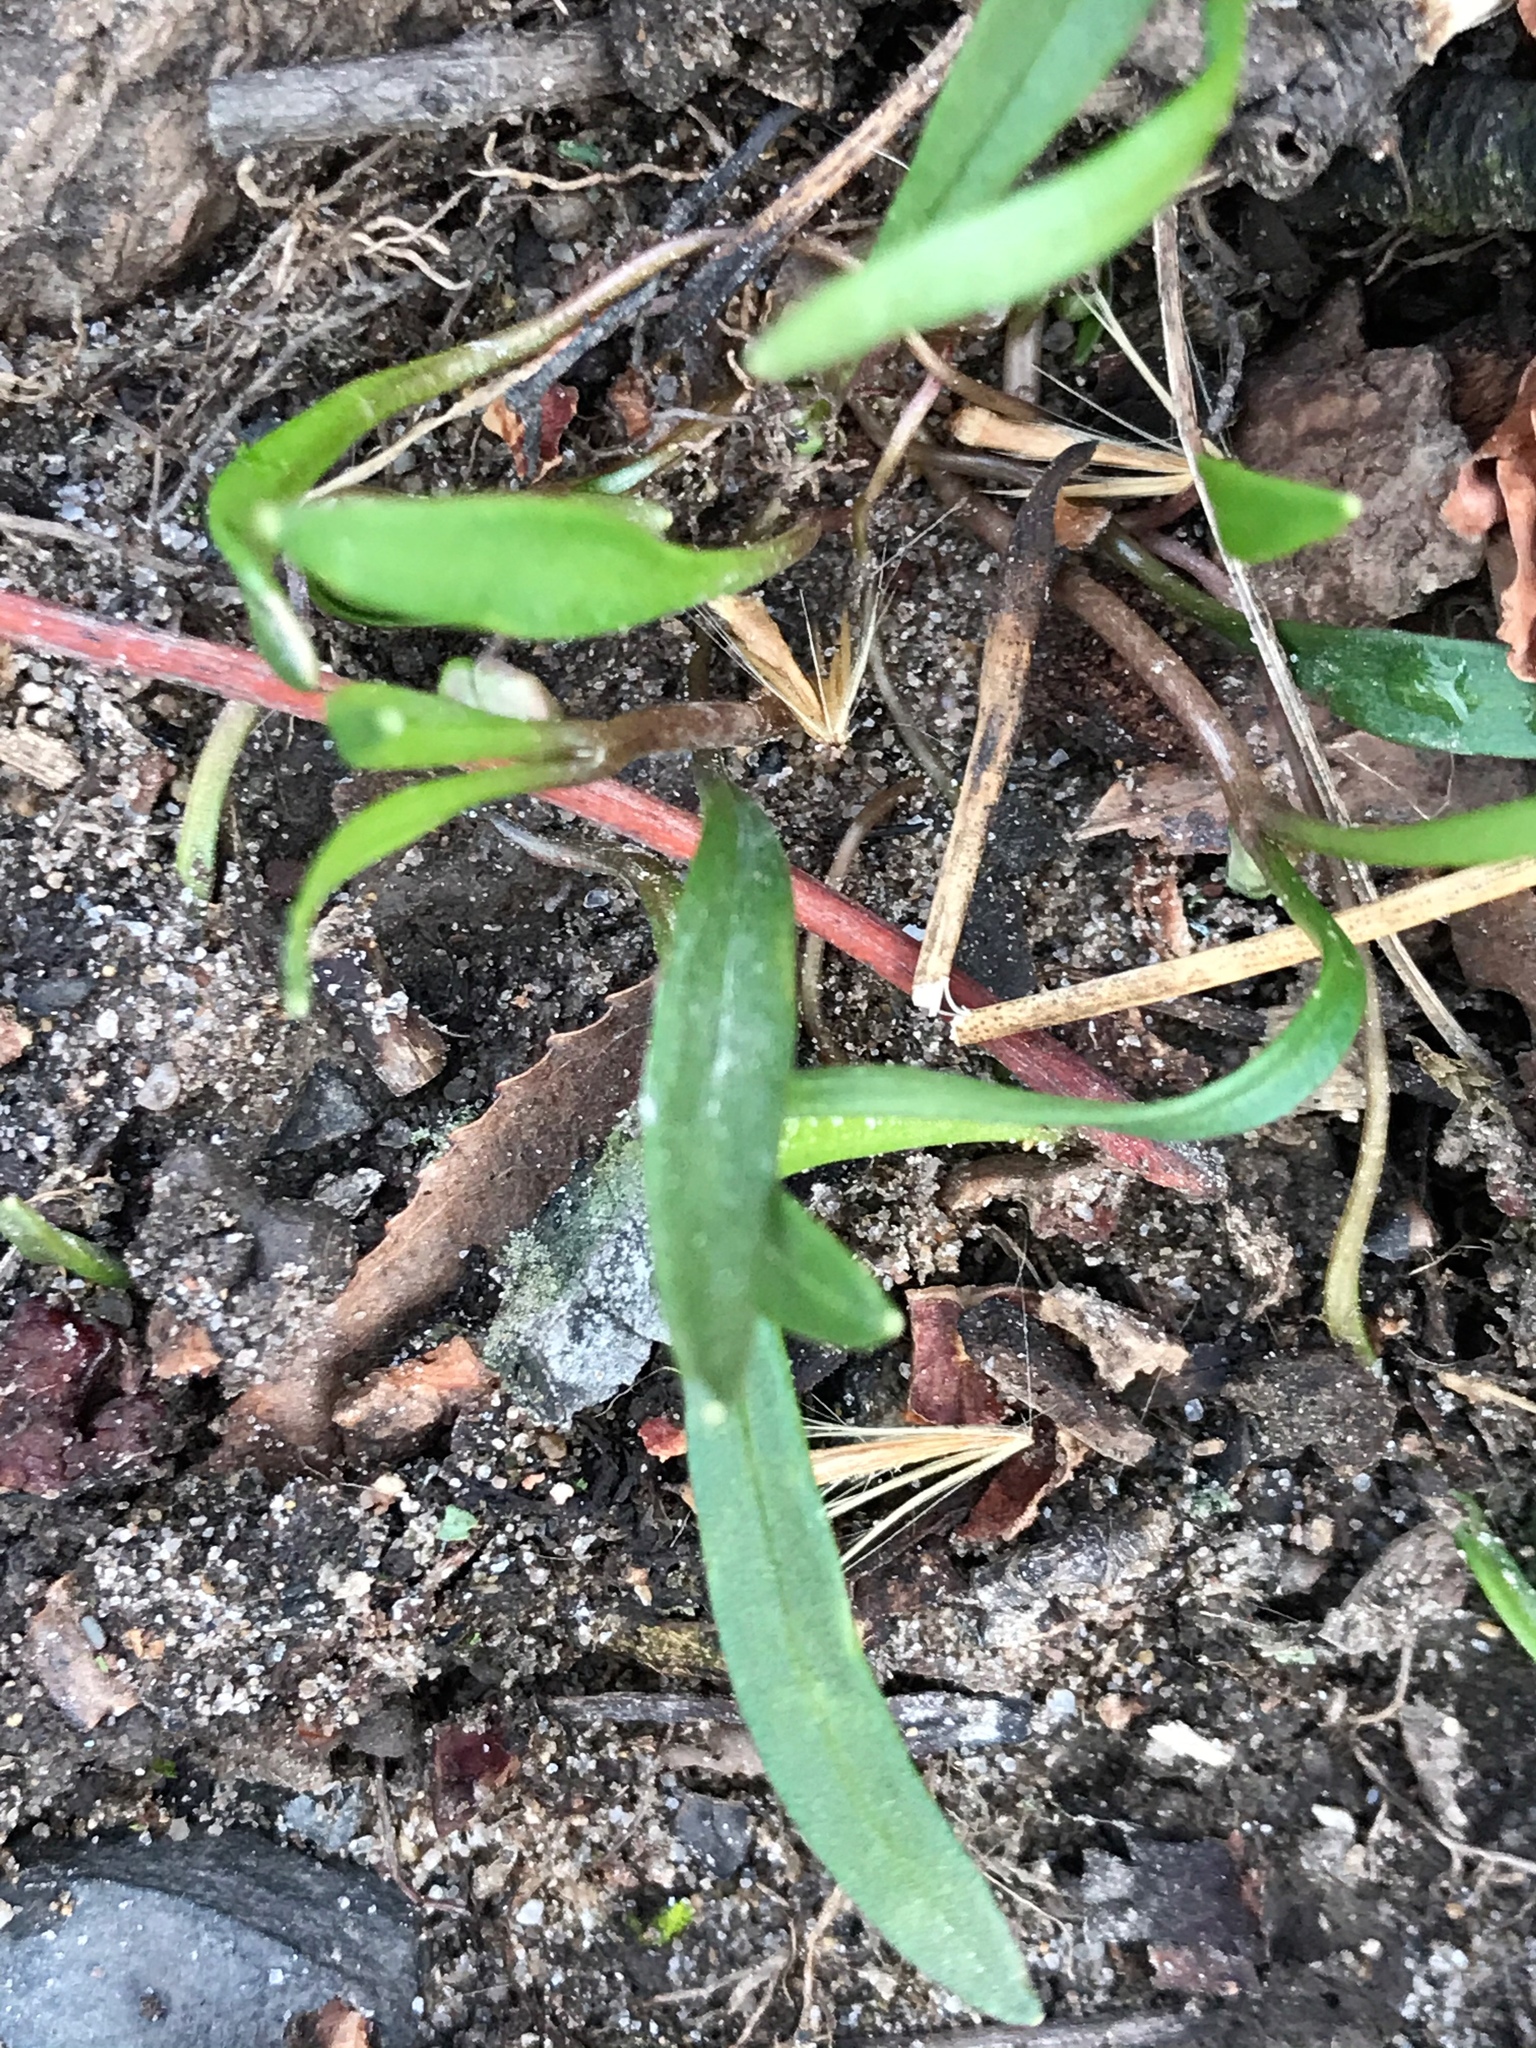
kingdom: Plantae
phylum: Tracheophyta
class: Magnoliopsida
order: Caryophyllales
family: Montiaceae
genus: Claytonia
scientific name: Claytonia virginica
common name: Virginia springbeauty
